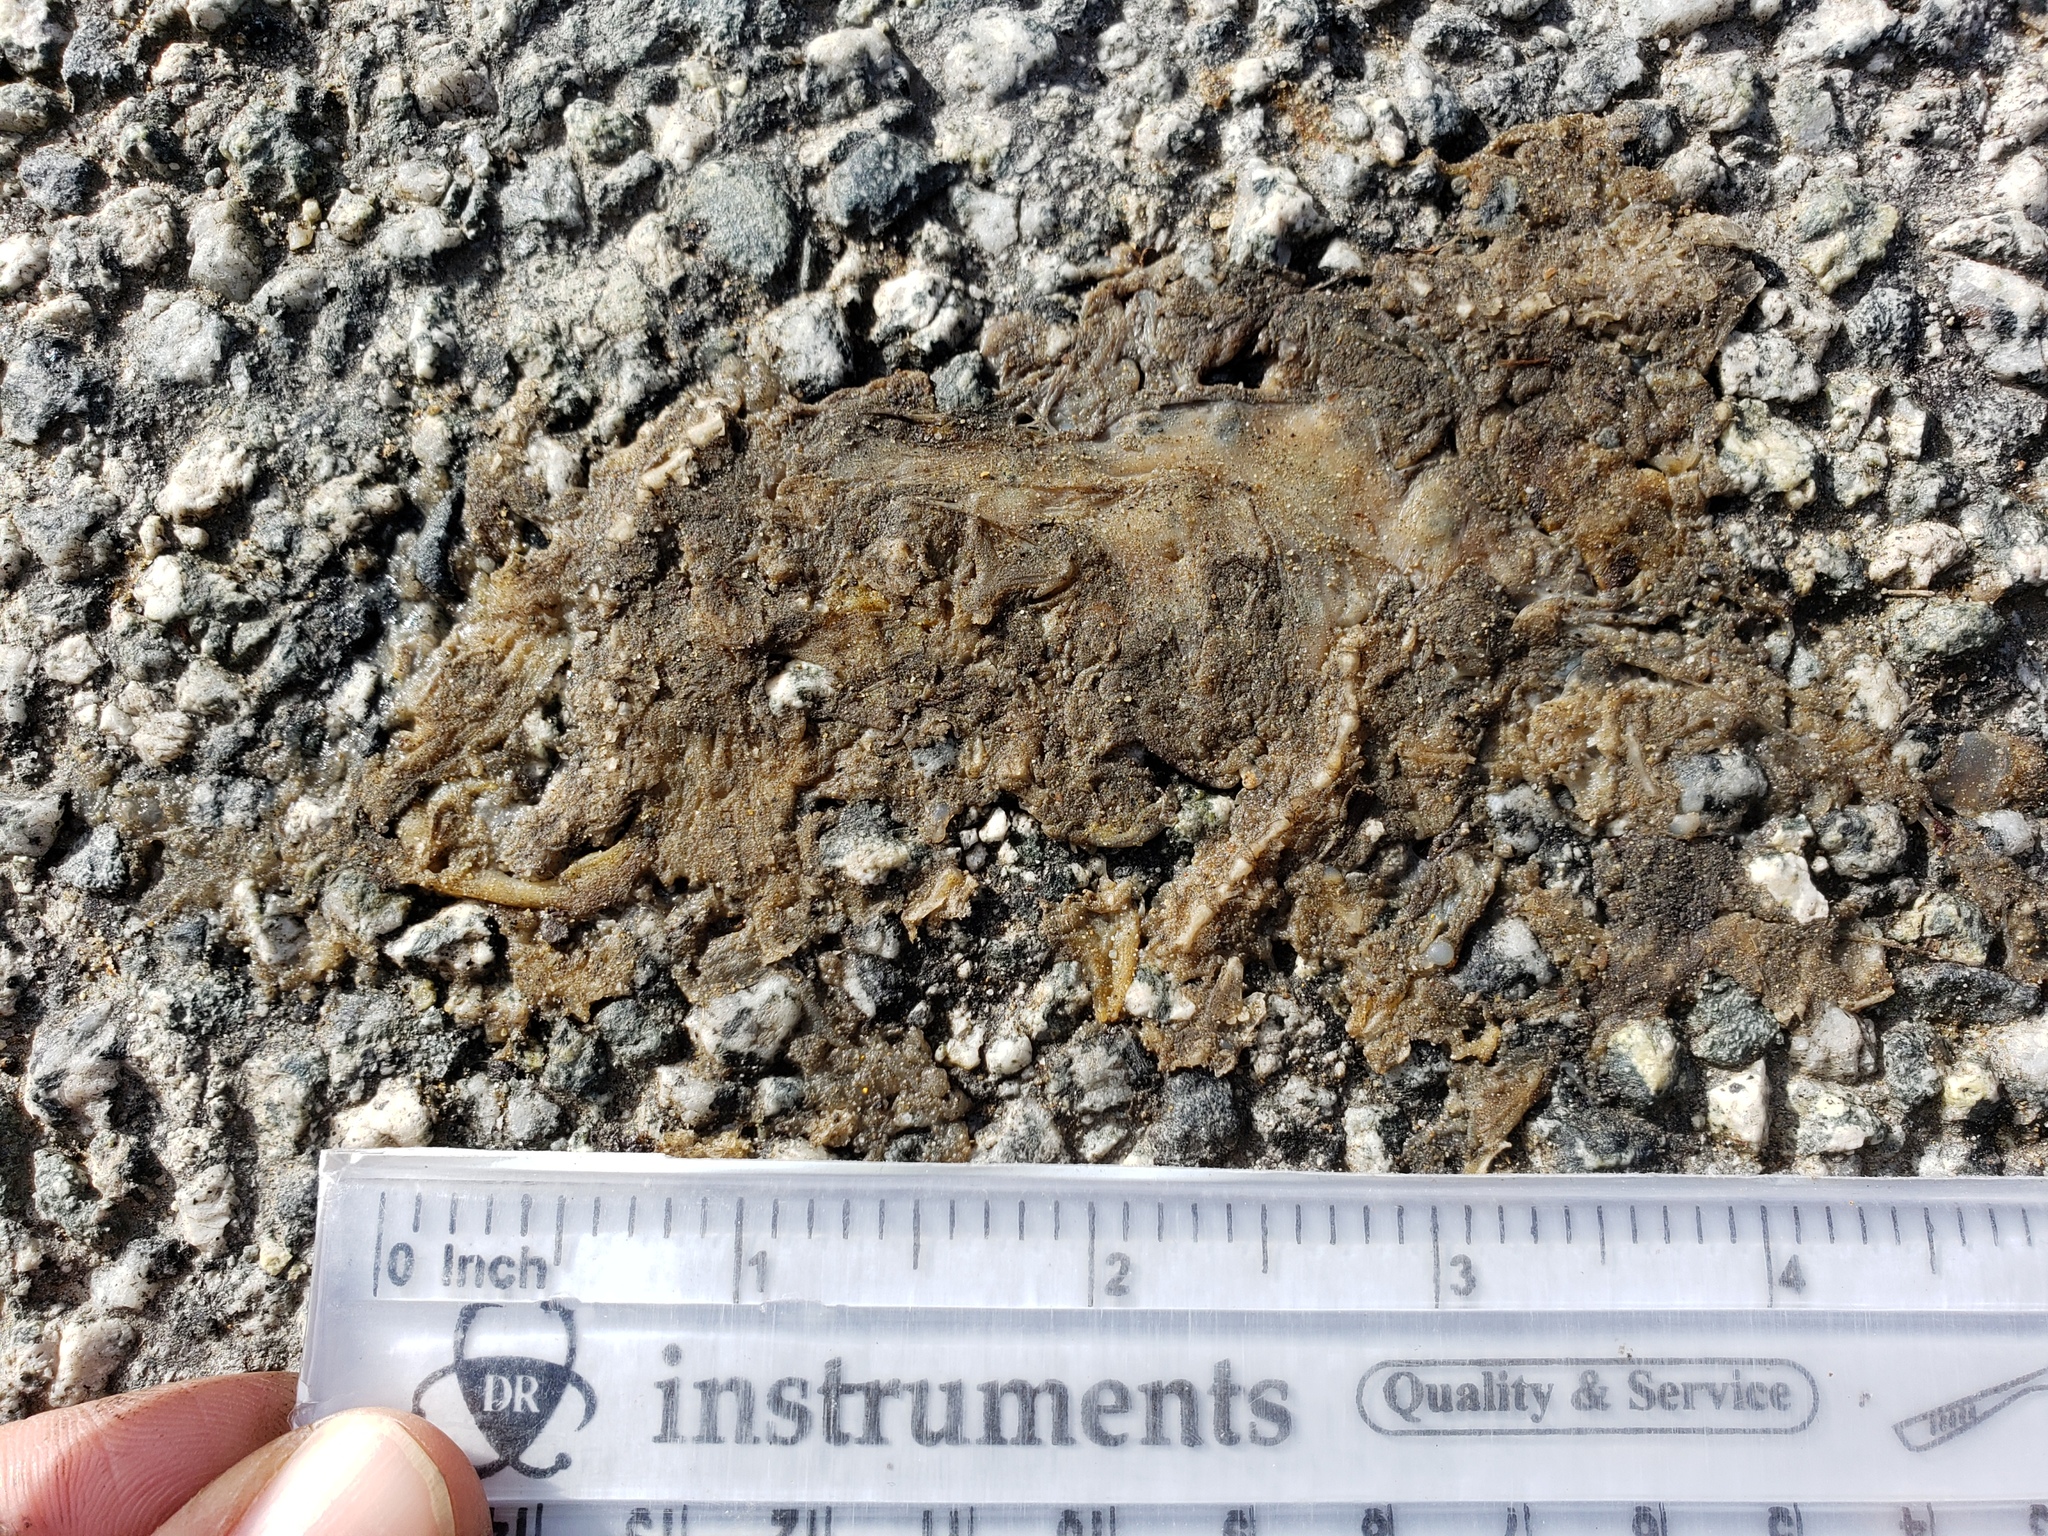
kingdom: Animalia
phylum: Chordata
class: Amphibia
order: Caudata
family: Salamandridae
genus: Taricha
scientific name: Taricha
